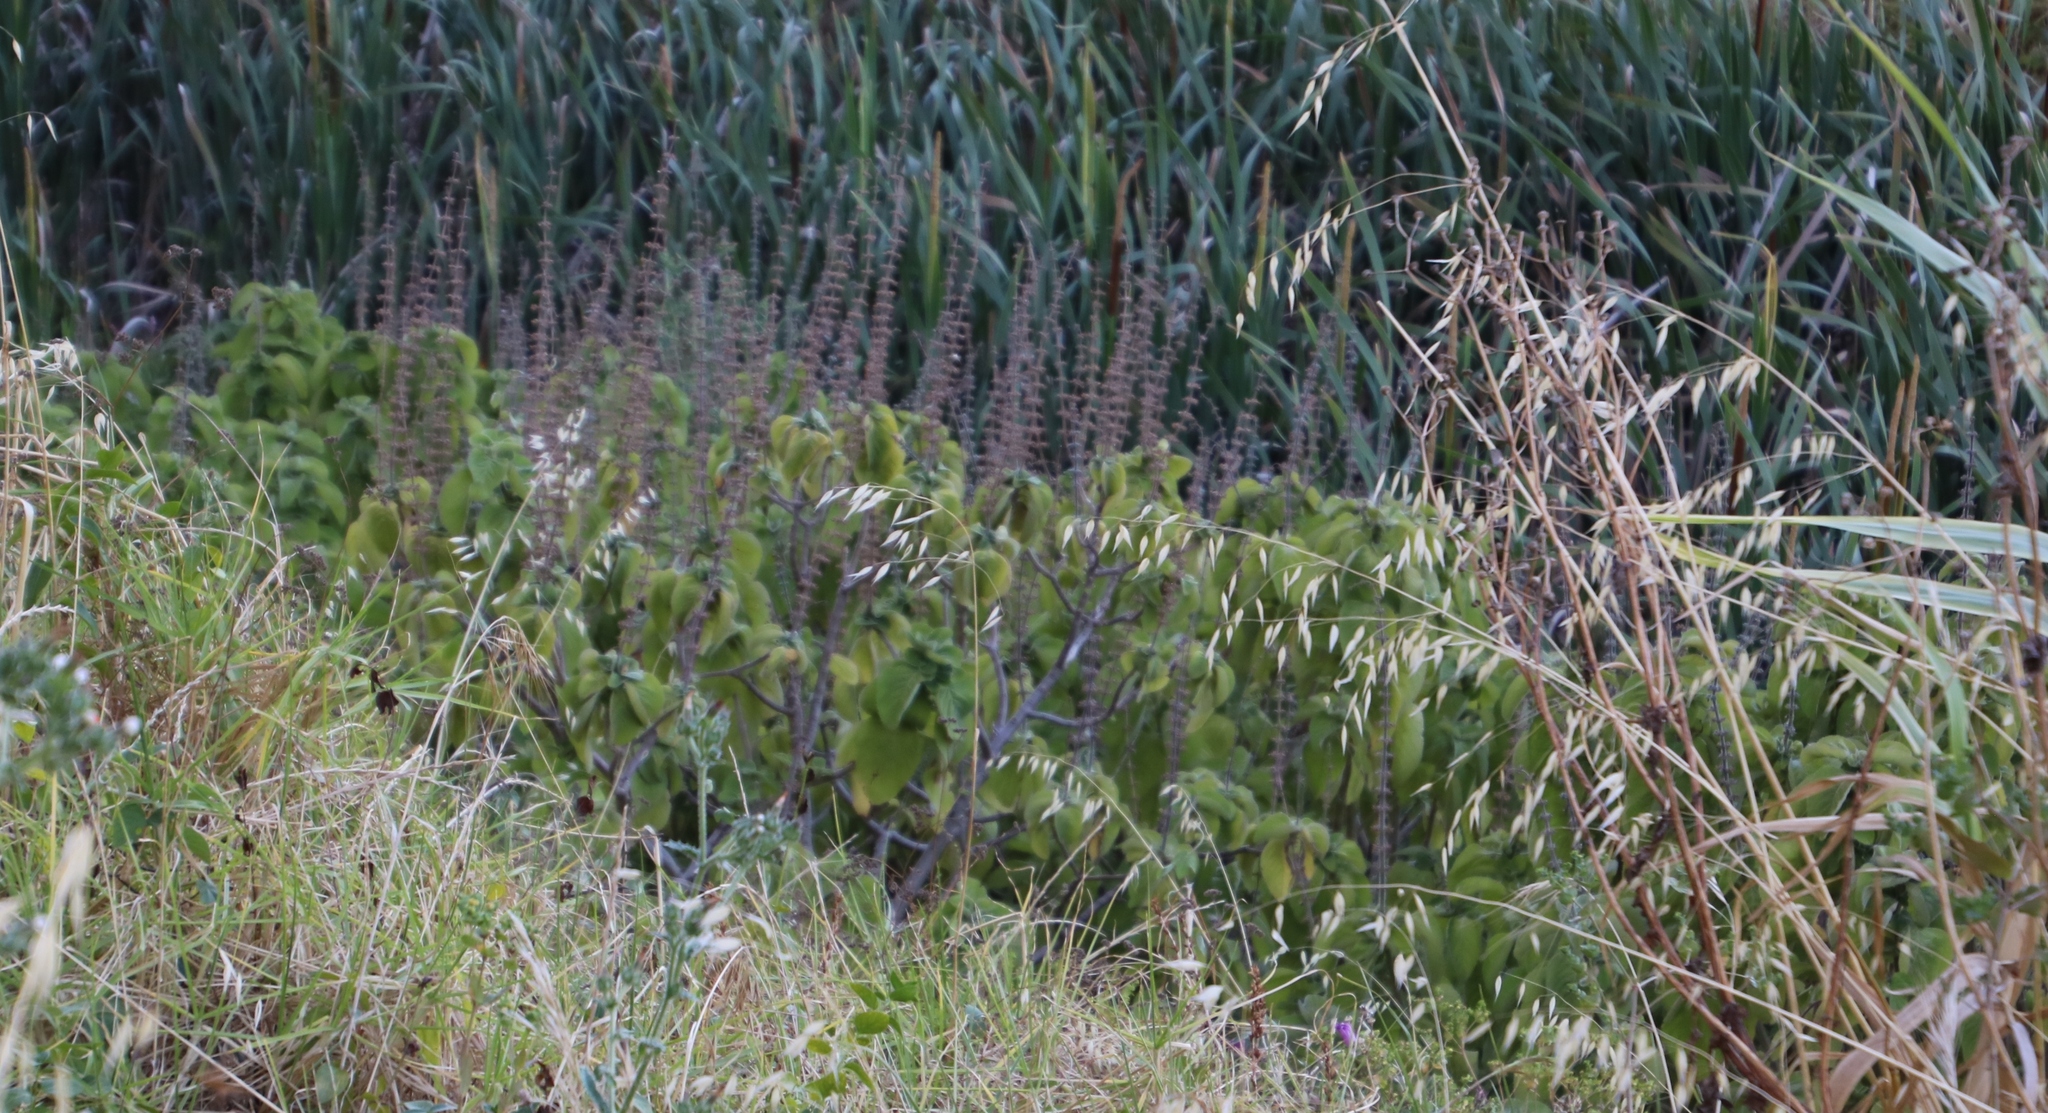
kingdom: Plantae
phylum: Tracheophyta
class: Magnoliopsida
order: Lamiales
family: Lamiaceae
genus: Coleus
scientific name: Coleus barbatus
